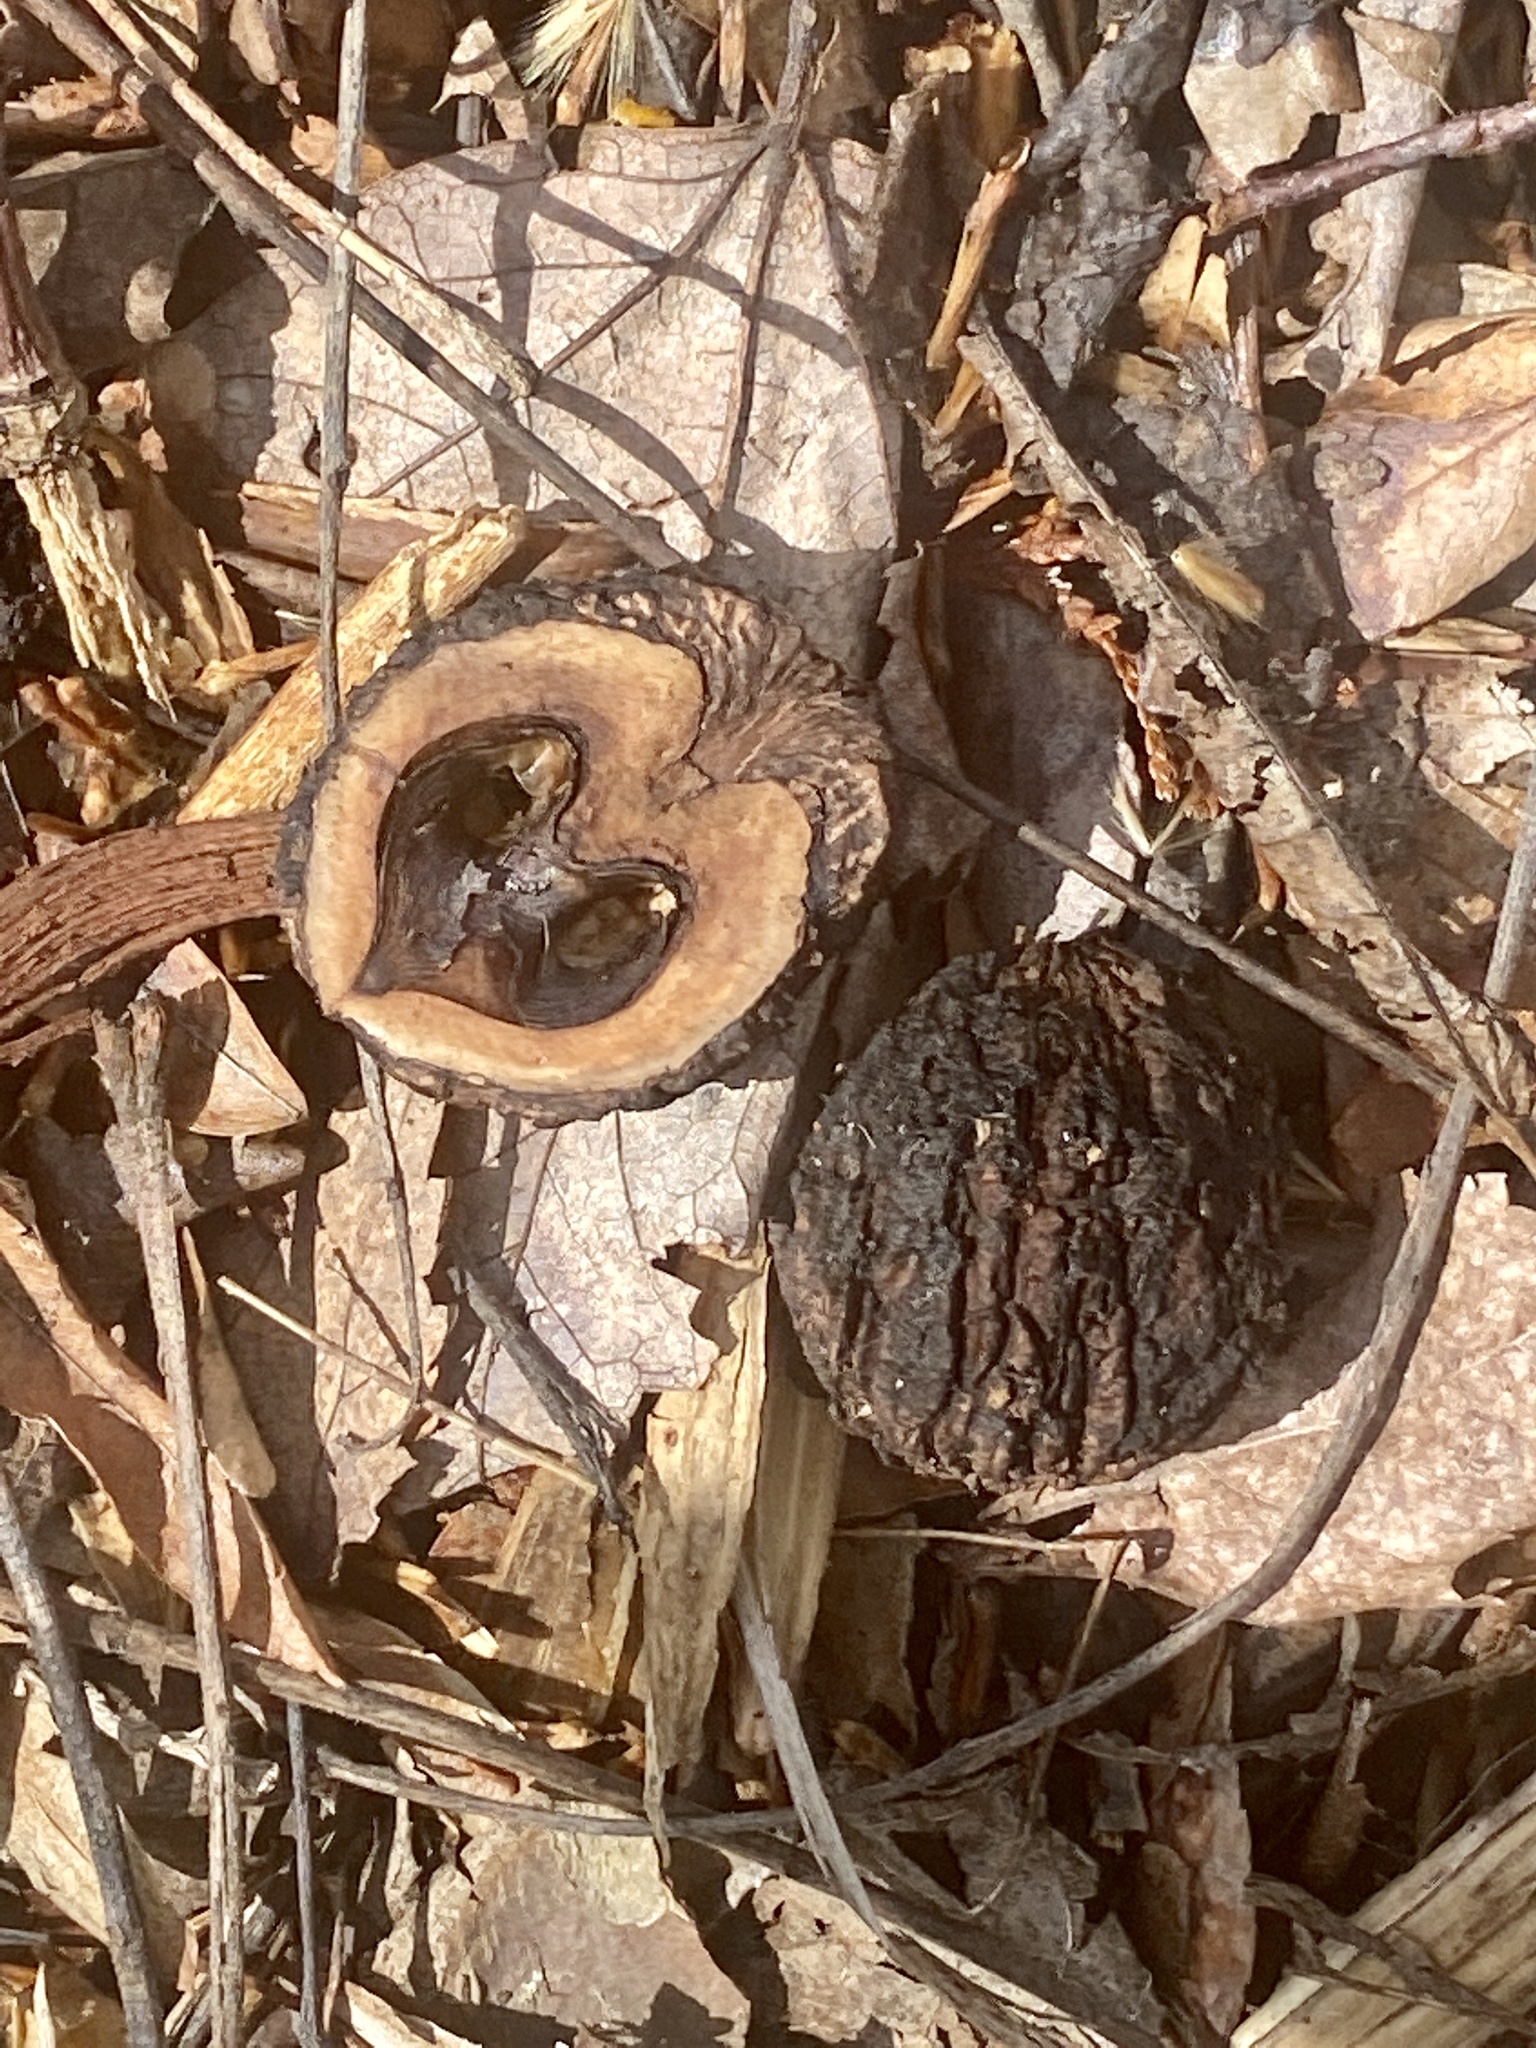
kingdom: Plantae
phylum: Tracheophyta
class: Magnoliopsida
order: Fagales
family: Juglandaceae
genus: Juglans
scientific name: Juglans nigra
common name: Black walnut
